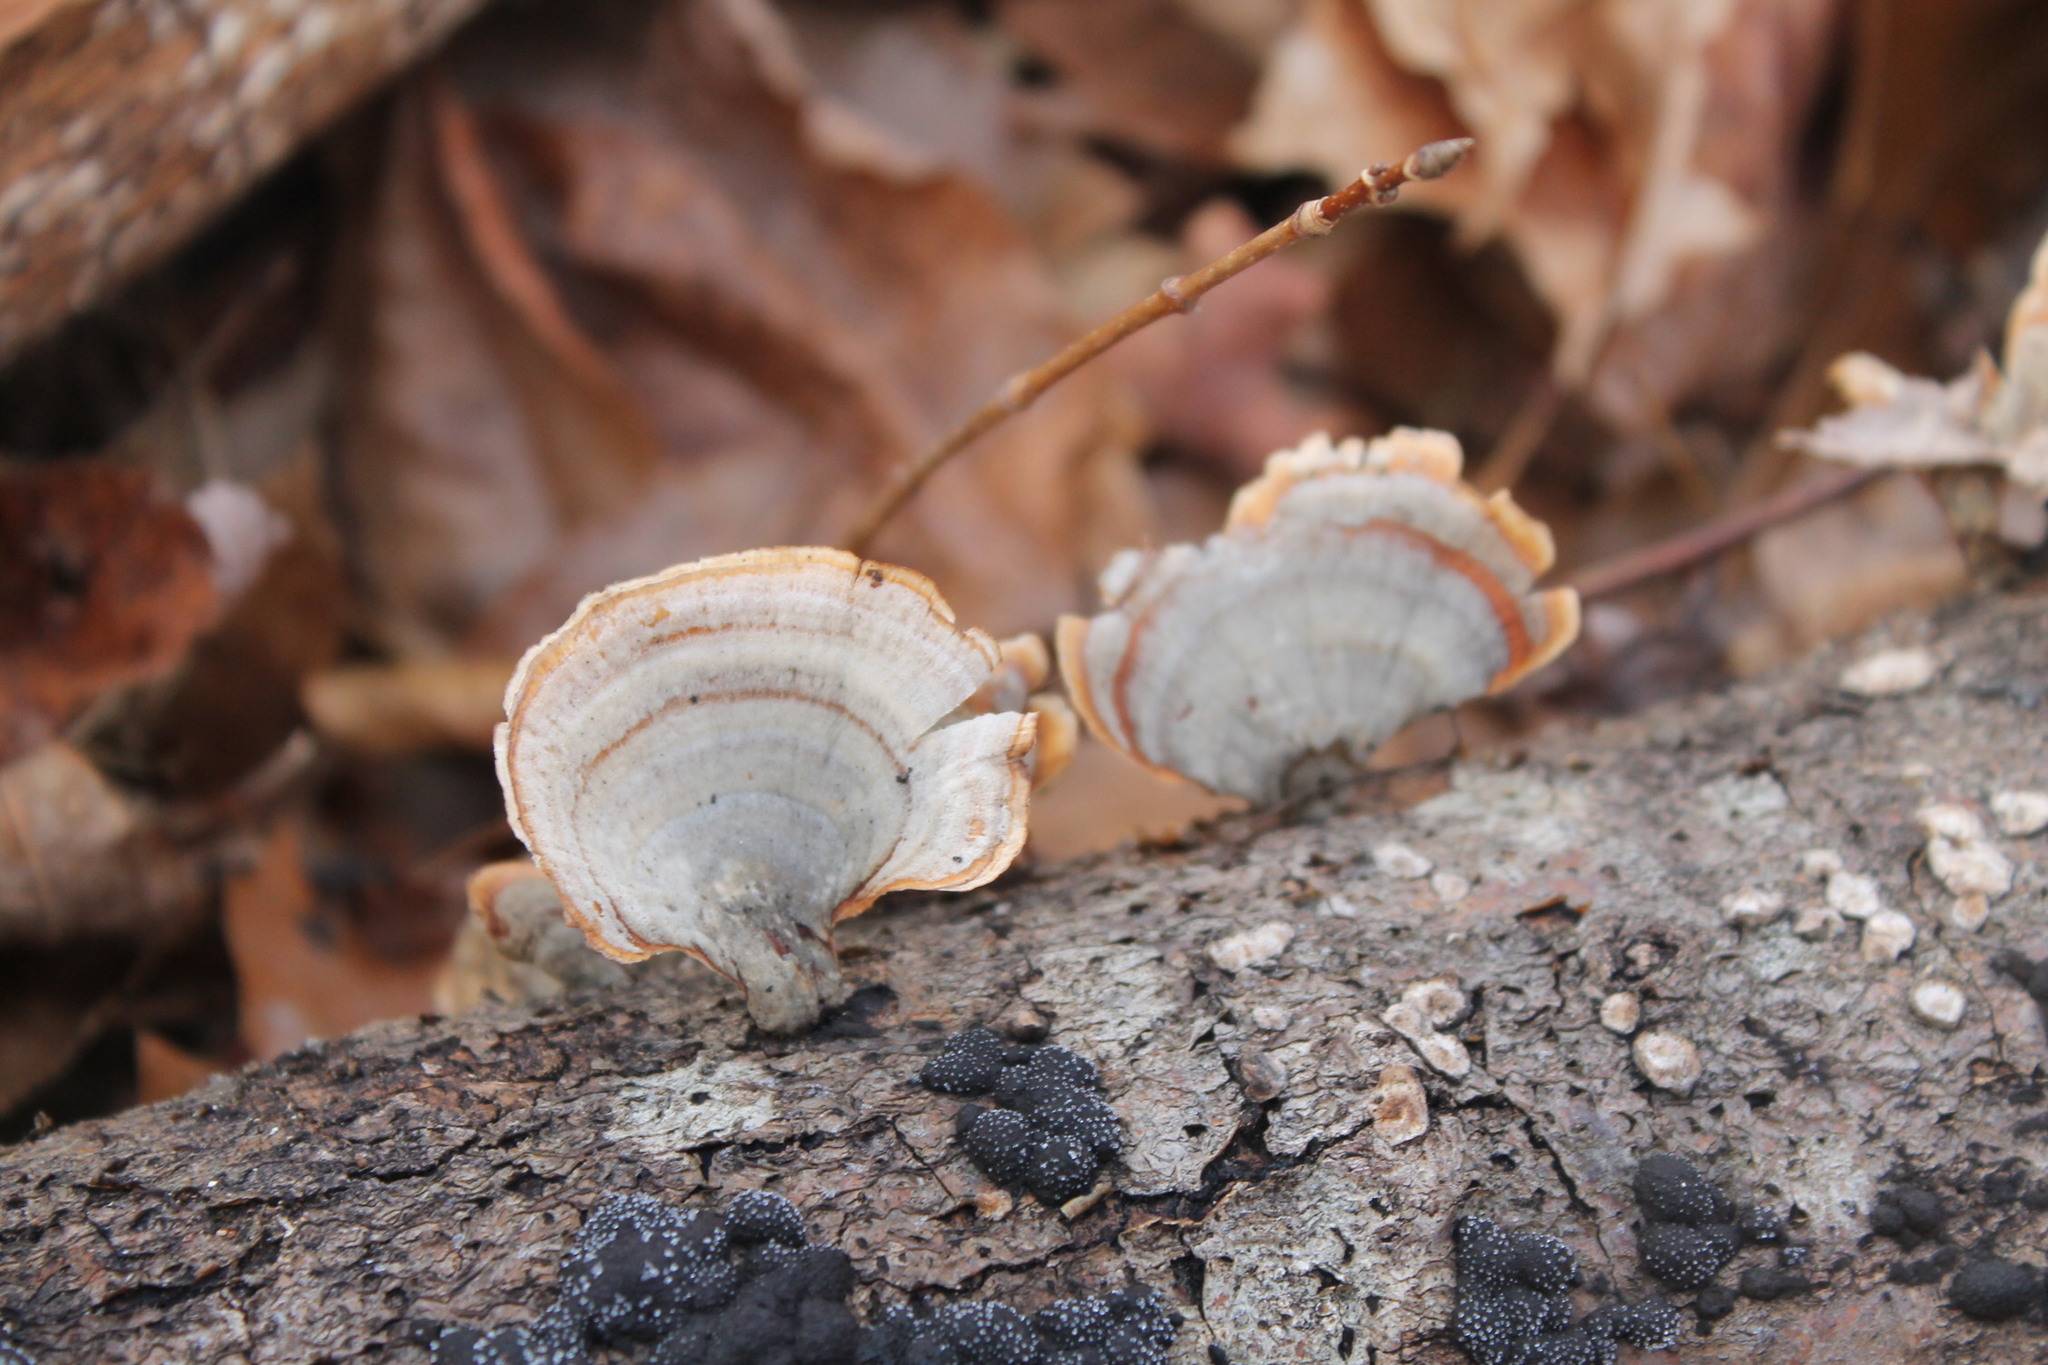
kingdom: Fungi
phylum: Basidiomycota
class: Agaricomycetes
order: Russulales
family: Stereaceae
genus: Stereum
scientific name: Stereum lobatum
